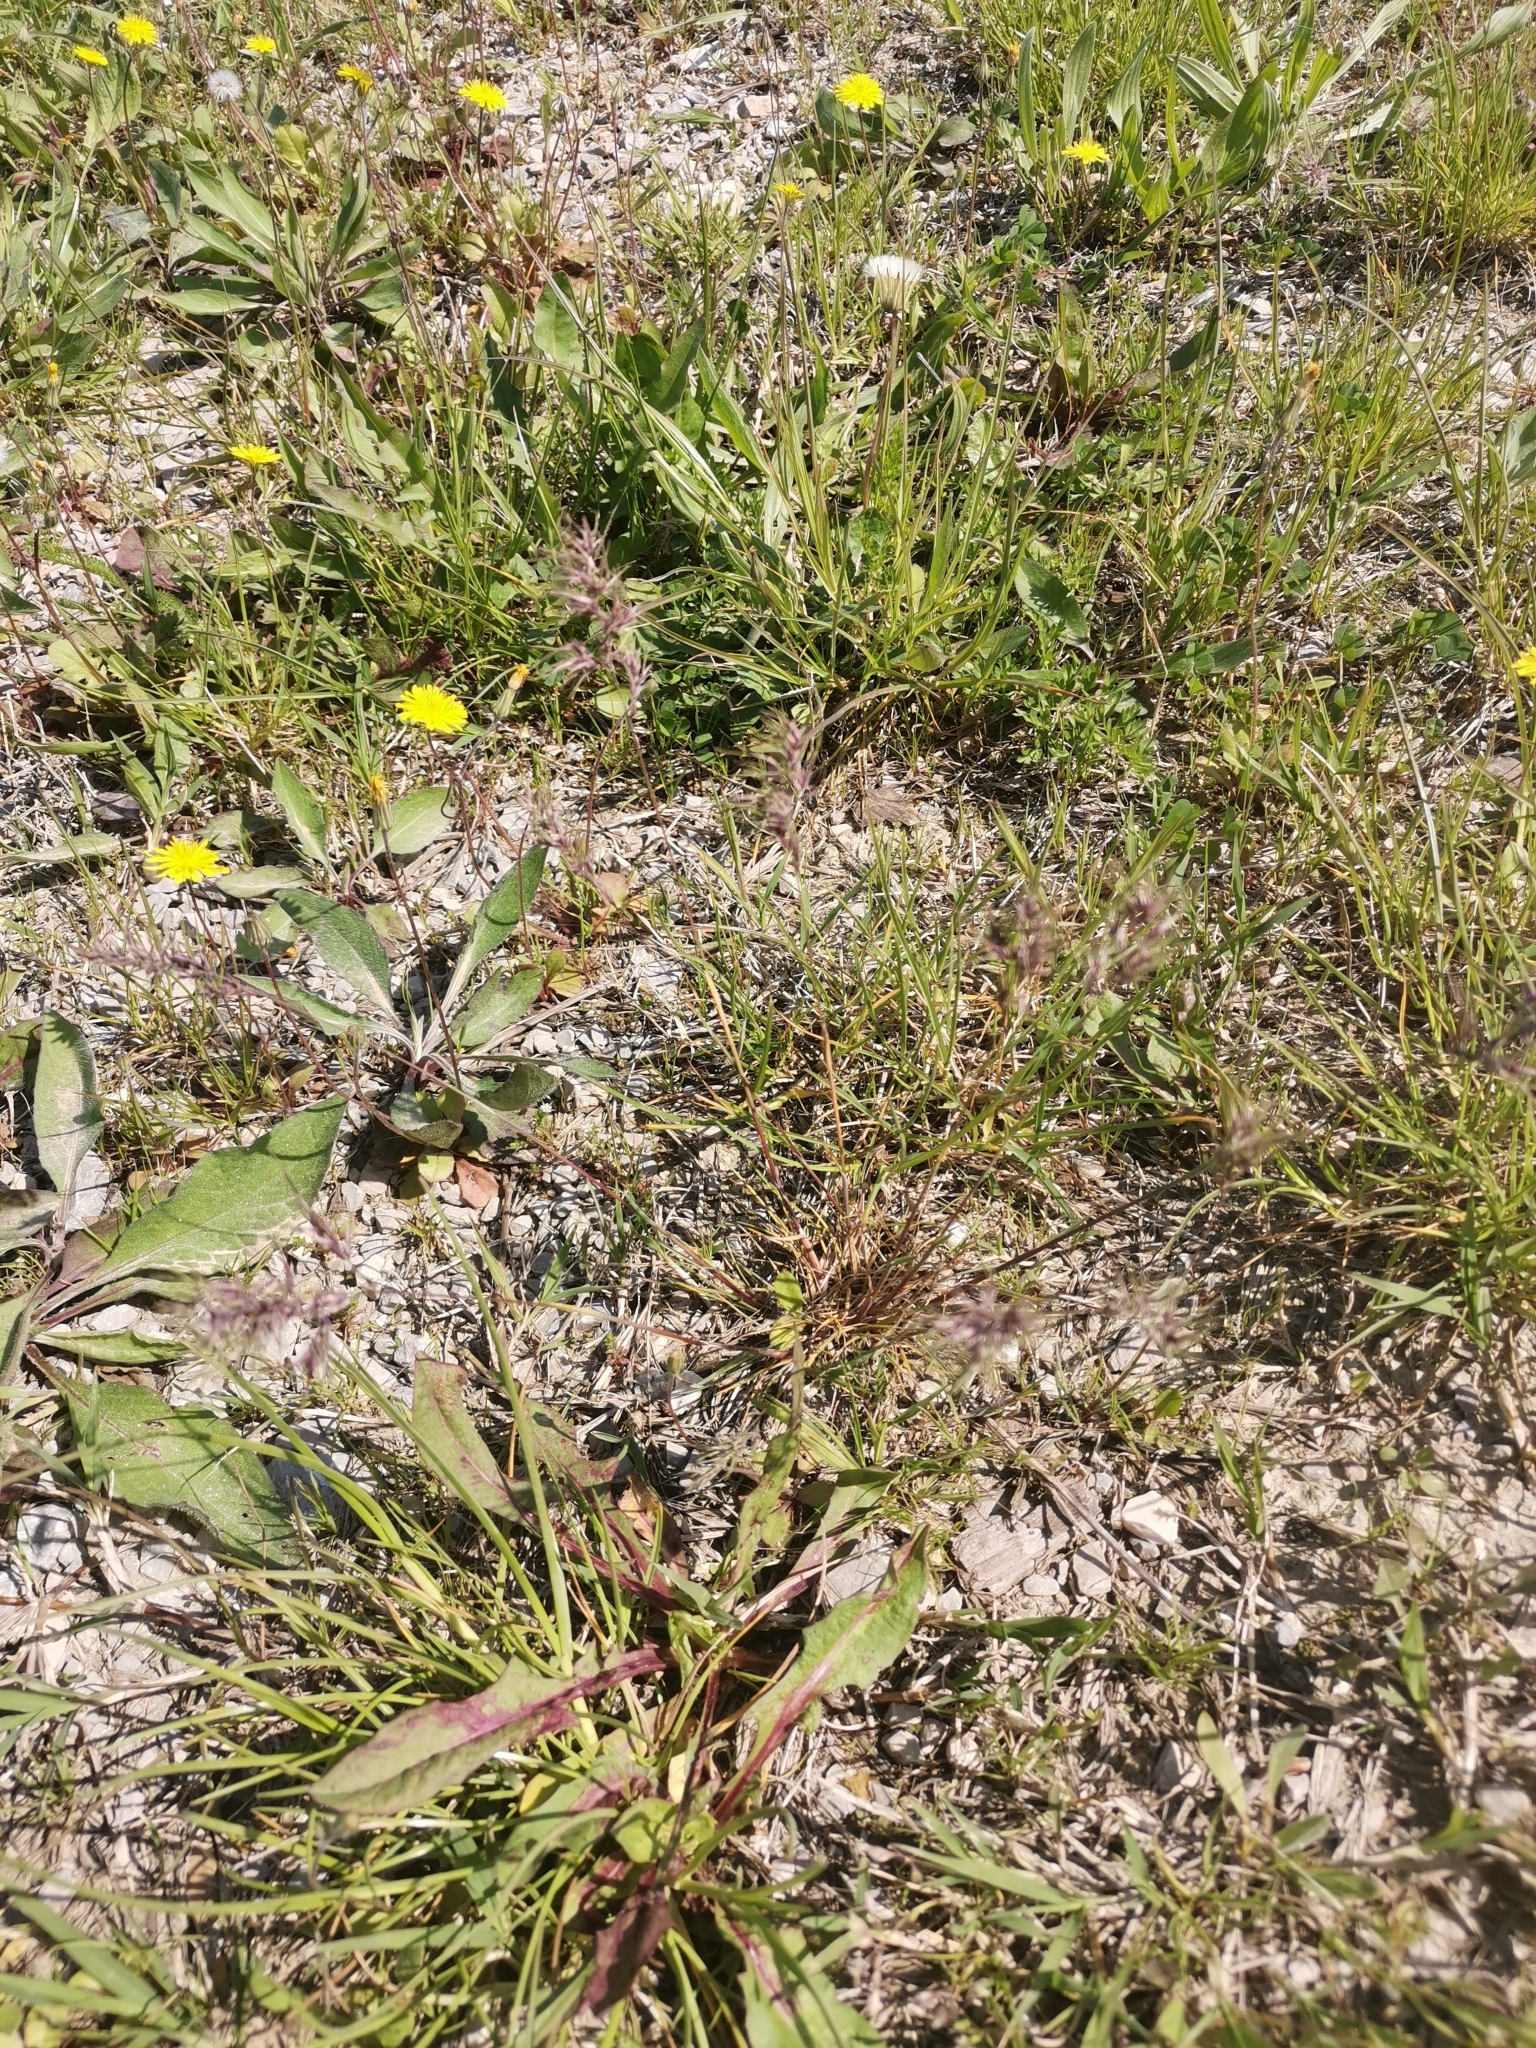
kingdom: Plantae
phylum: Tracheophyta
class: Liliopsida
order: Poales
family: Poaceae
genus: Poa
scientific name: Poa bulbosa
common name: Bulbous bluegrass
